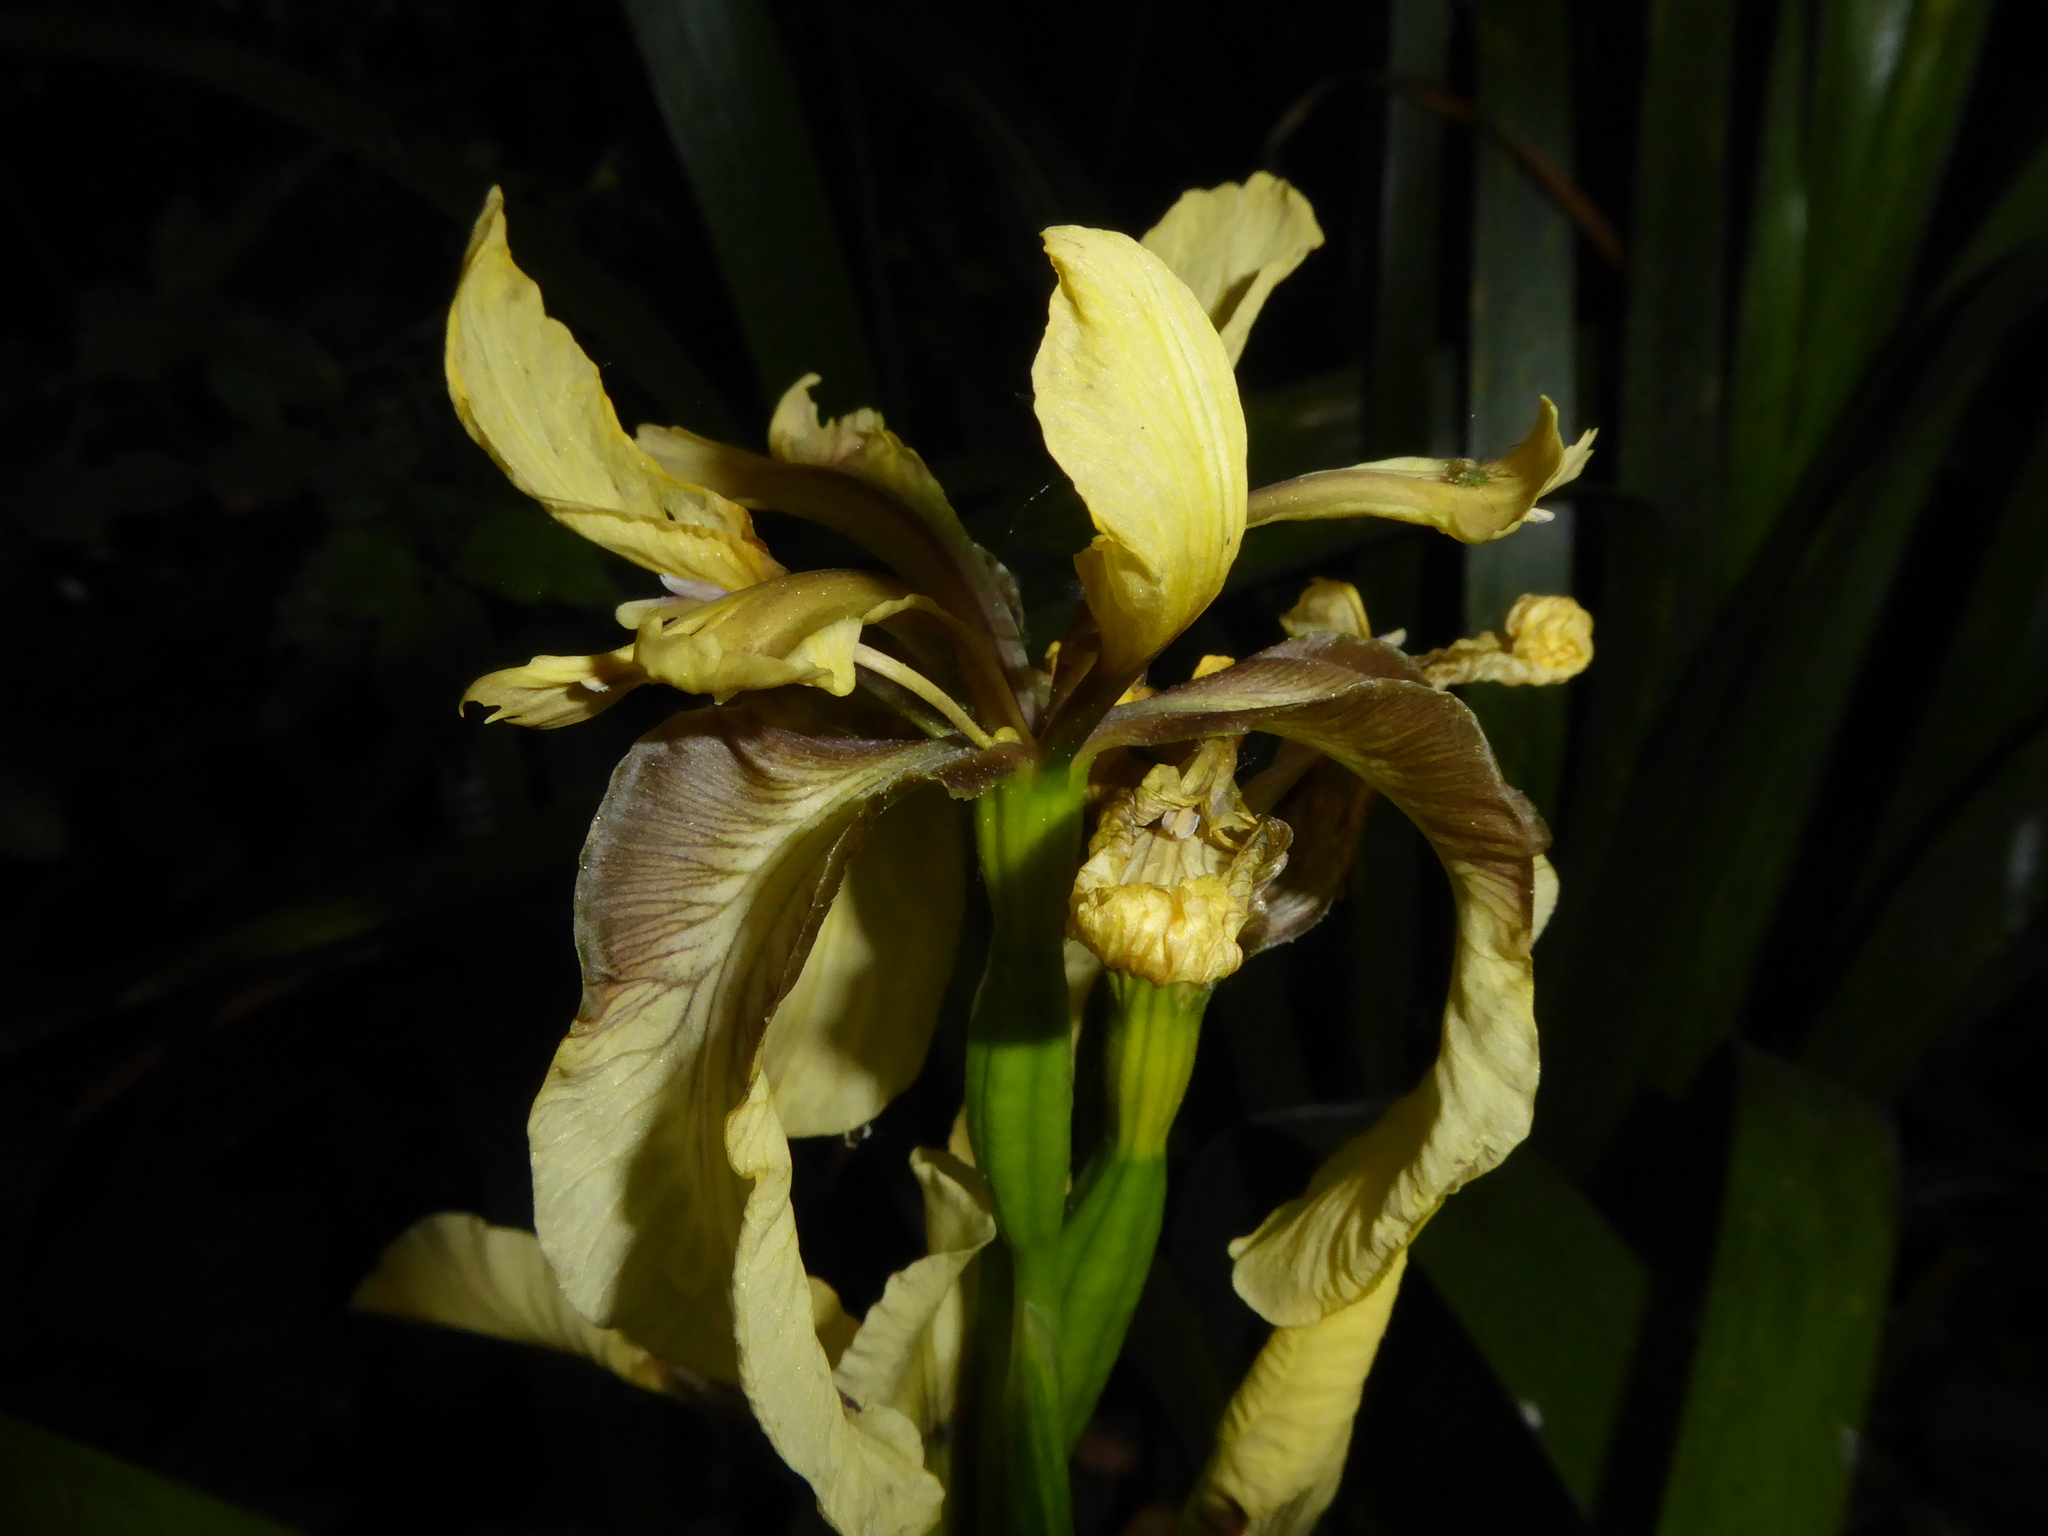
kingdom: Plantae
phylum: Tracheophyta
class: Liliopsida
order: Asparagales
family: Iridaceae
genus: Iris
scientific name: Iris foetidissima
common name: Stinking iris
